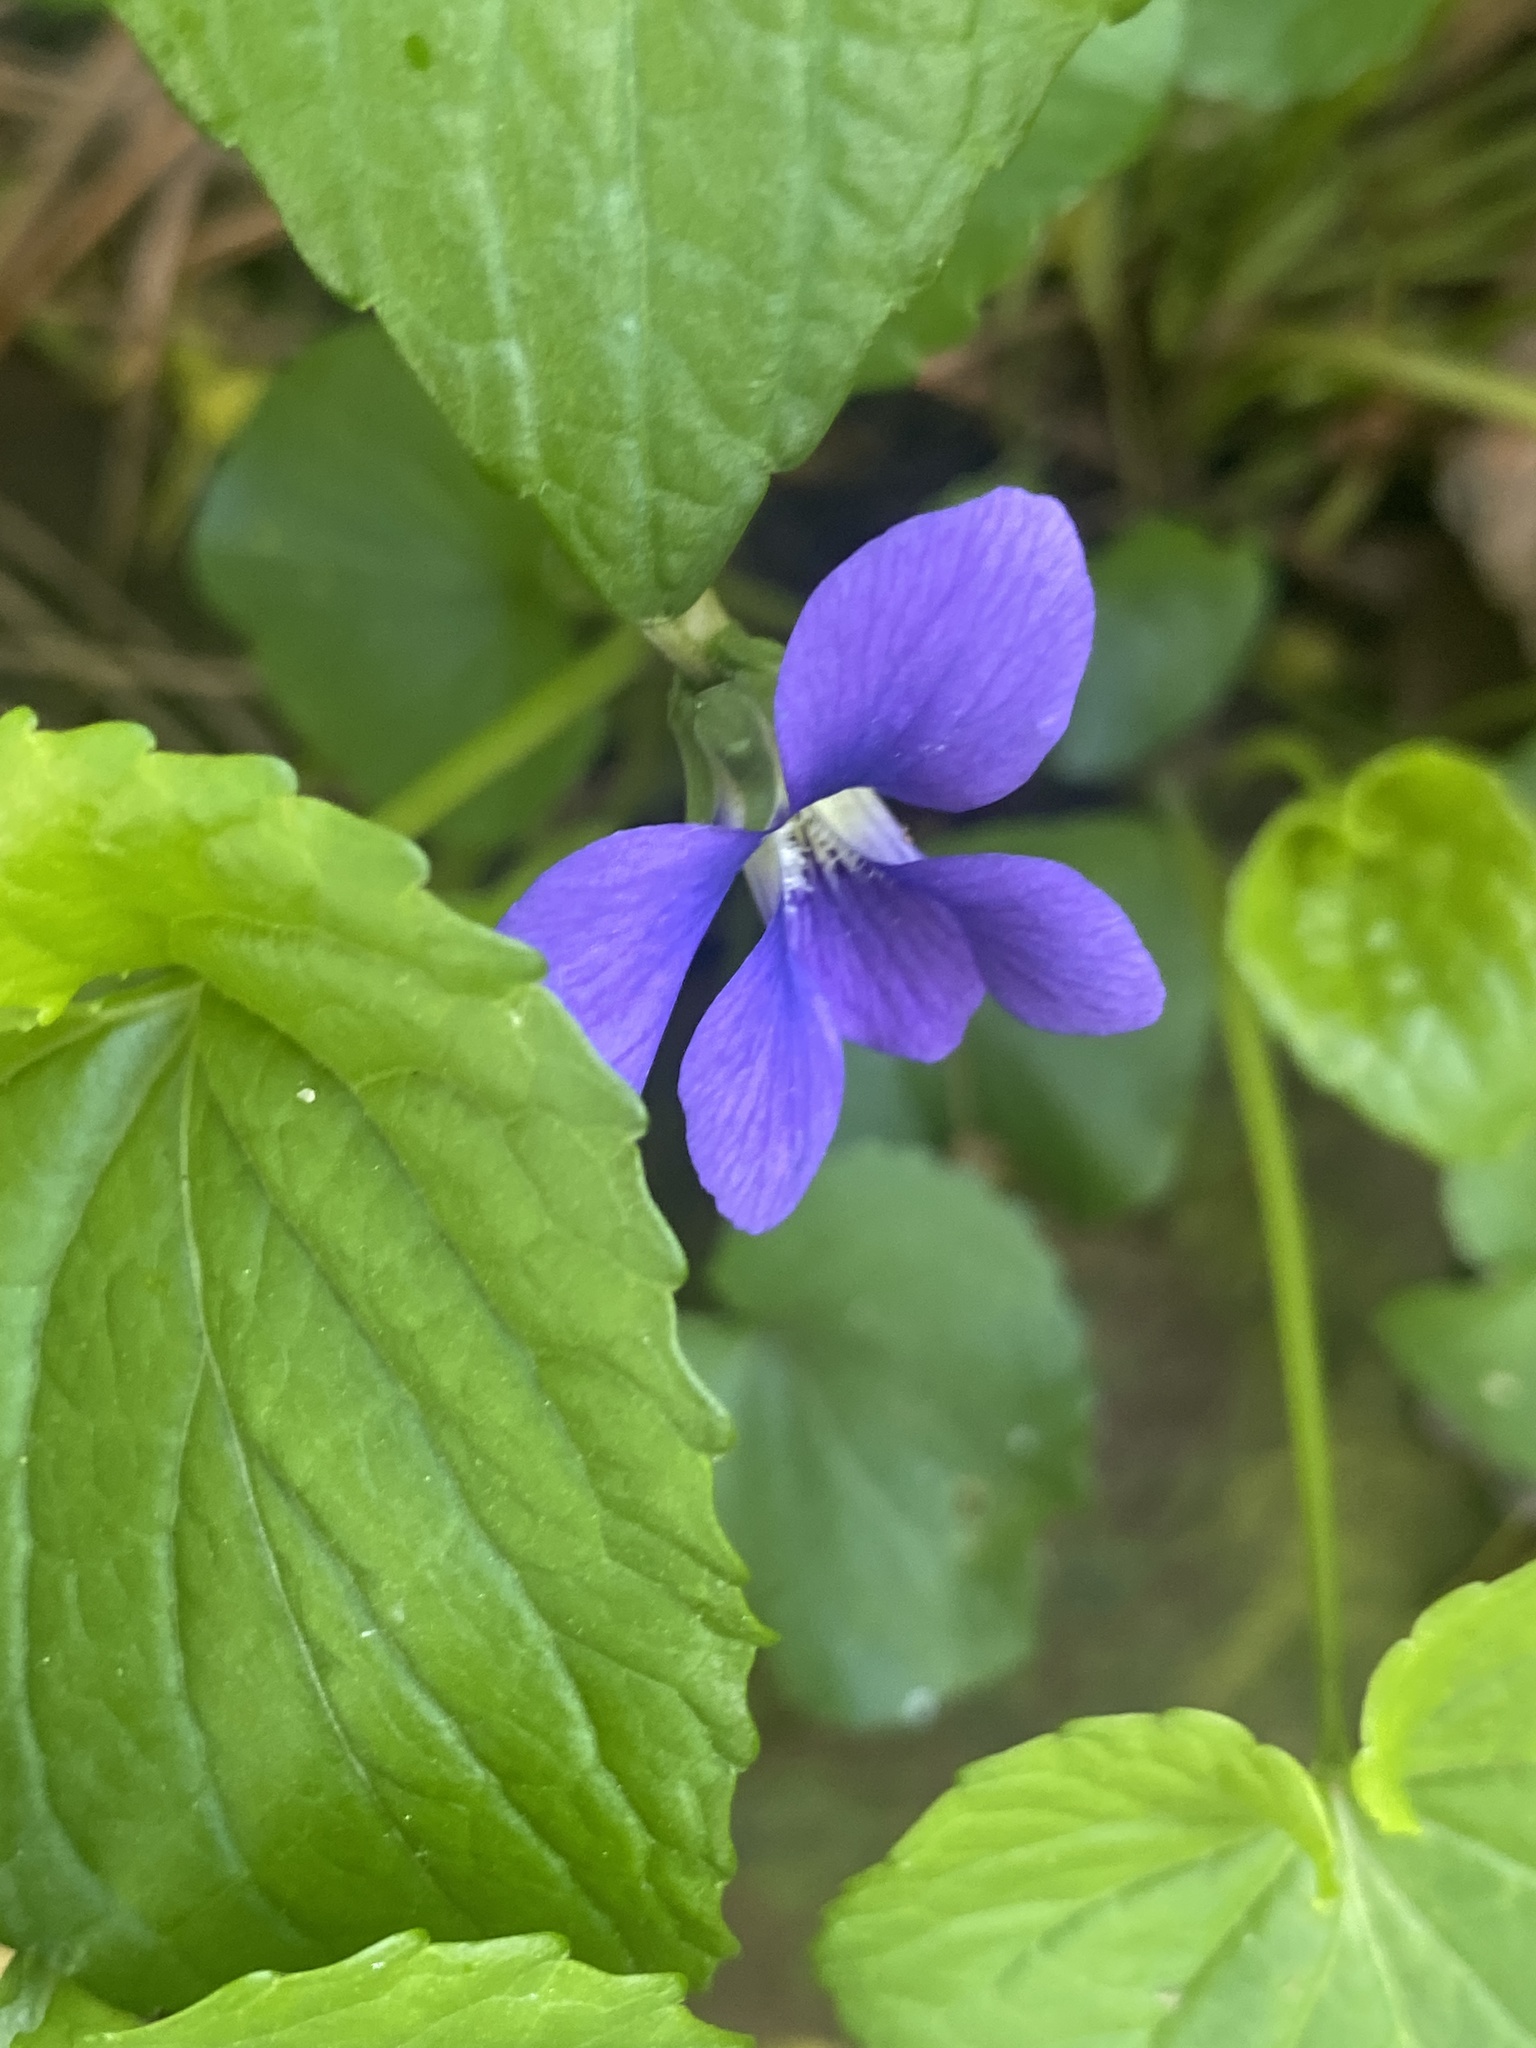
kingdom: Plantae
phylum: Tracheophyta
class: Magnoliopsida
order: Malpighiales
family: Violaceae
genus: Viola
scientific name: Viola sororia
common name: Dooryard violet
